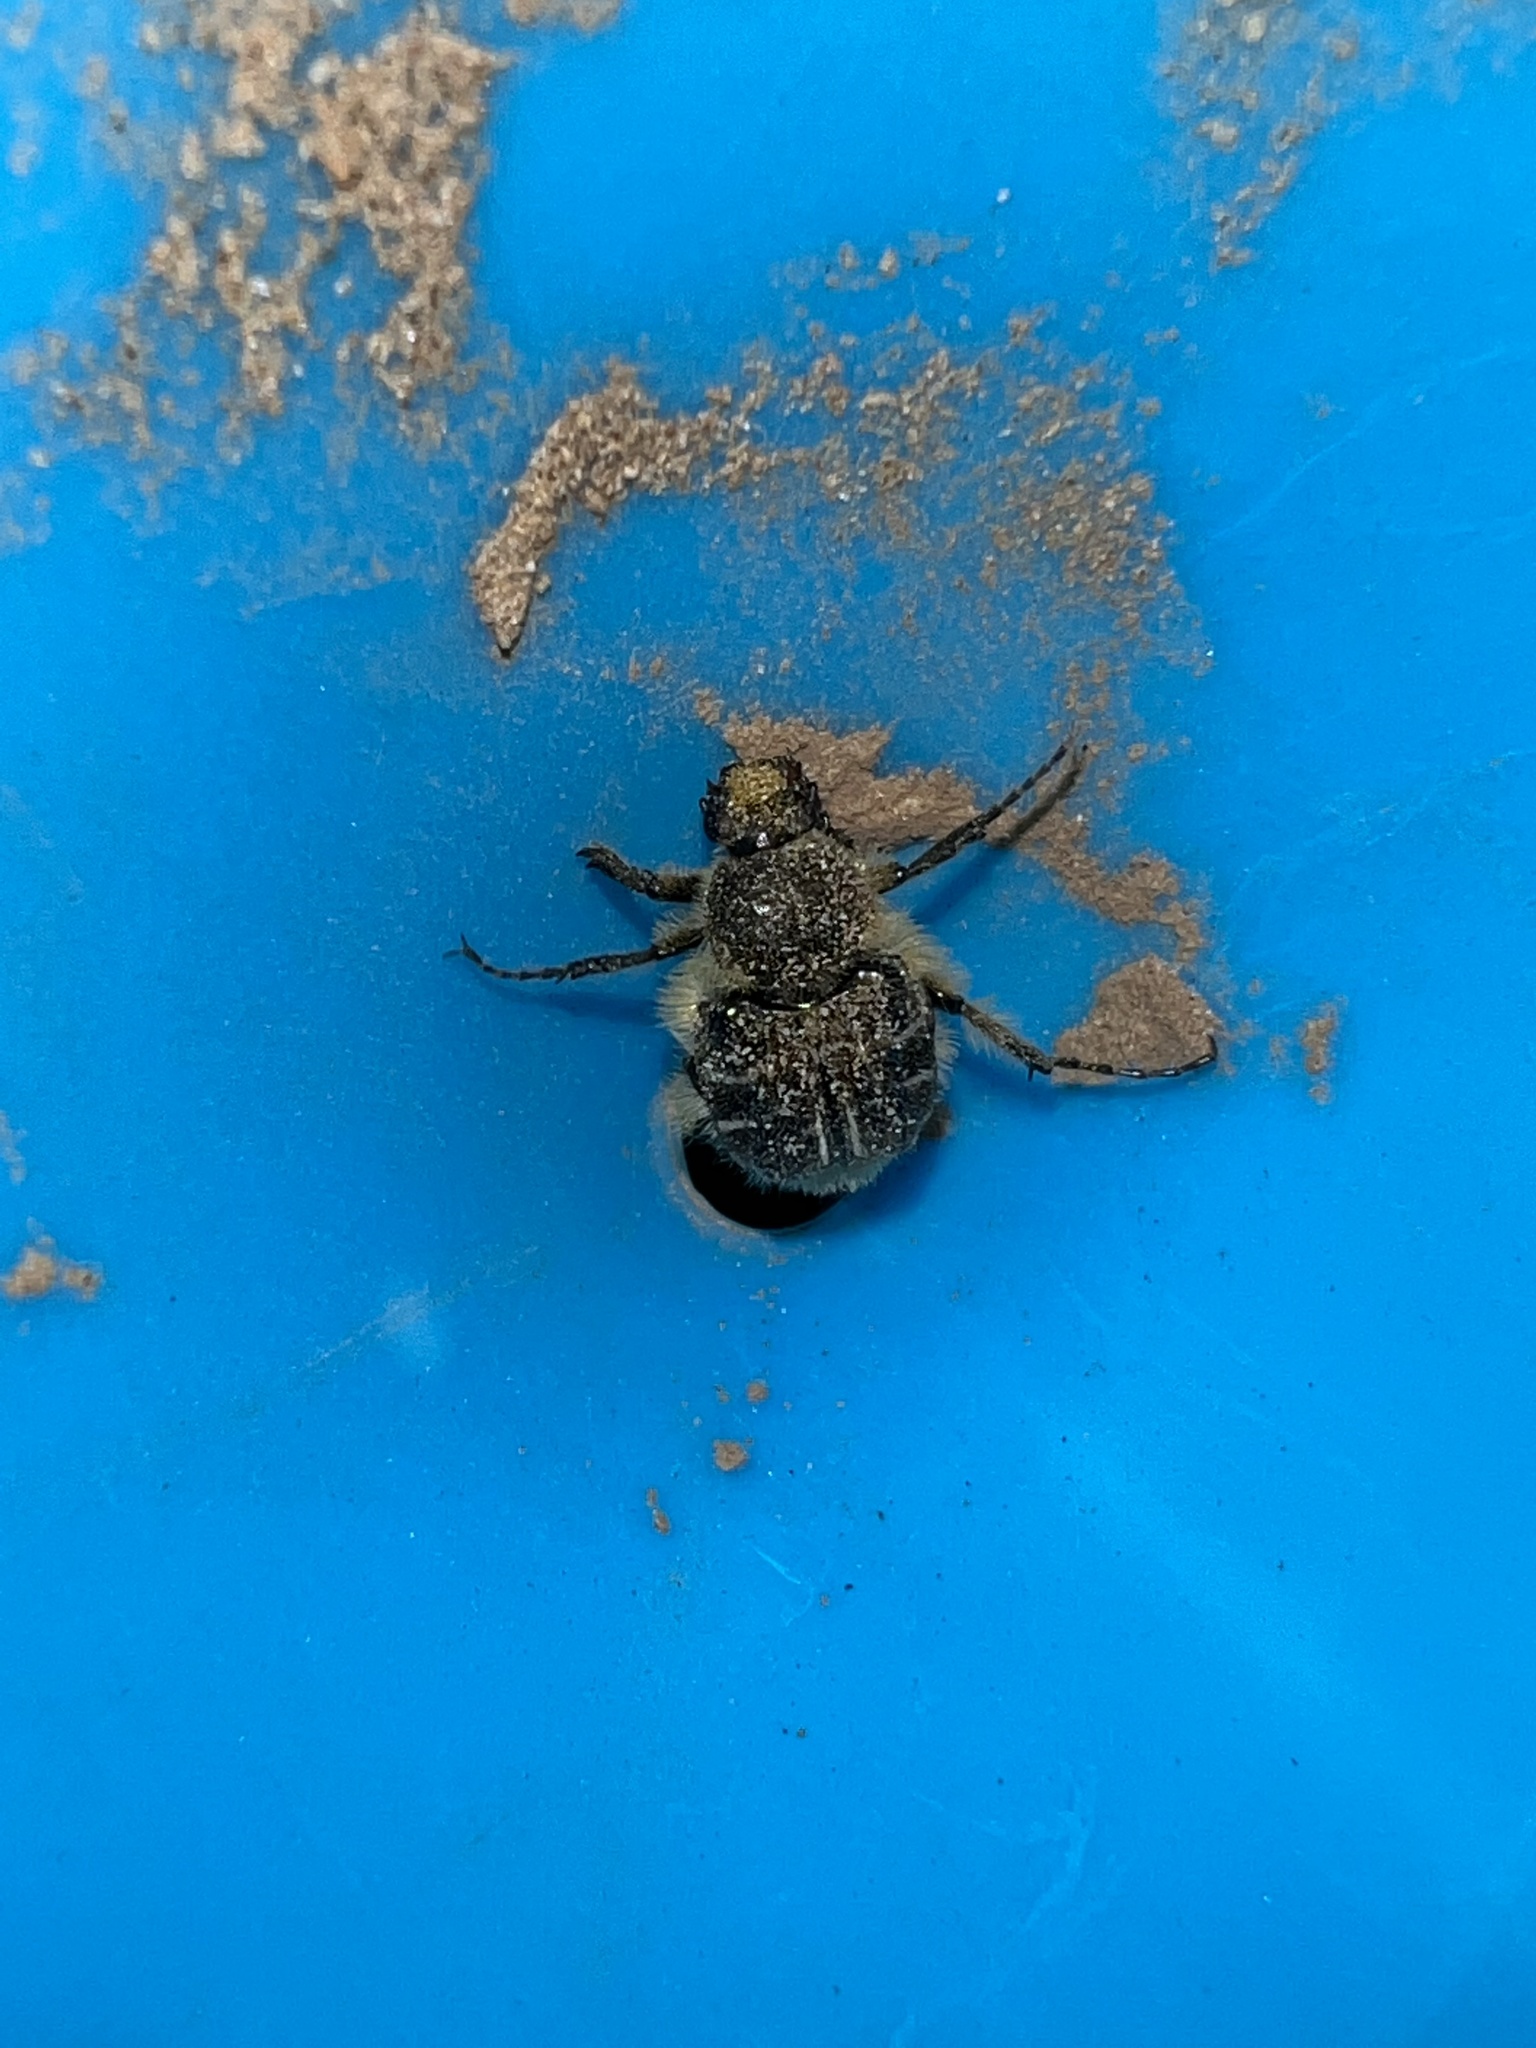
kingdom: Animalia
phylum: Arthropoda
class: Insecta
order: Coleoptera
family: Scarabaeidae
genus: Trichiotinus
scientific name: Trichiotinus assimilis
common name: Bee-mimic beetle
